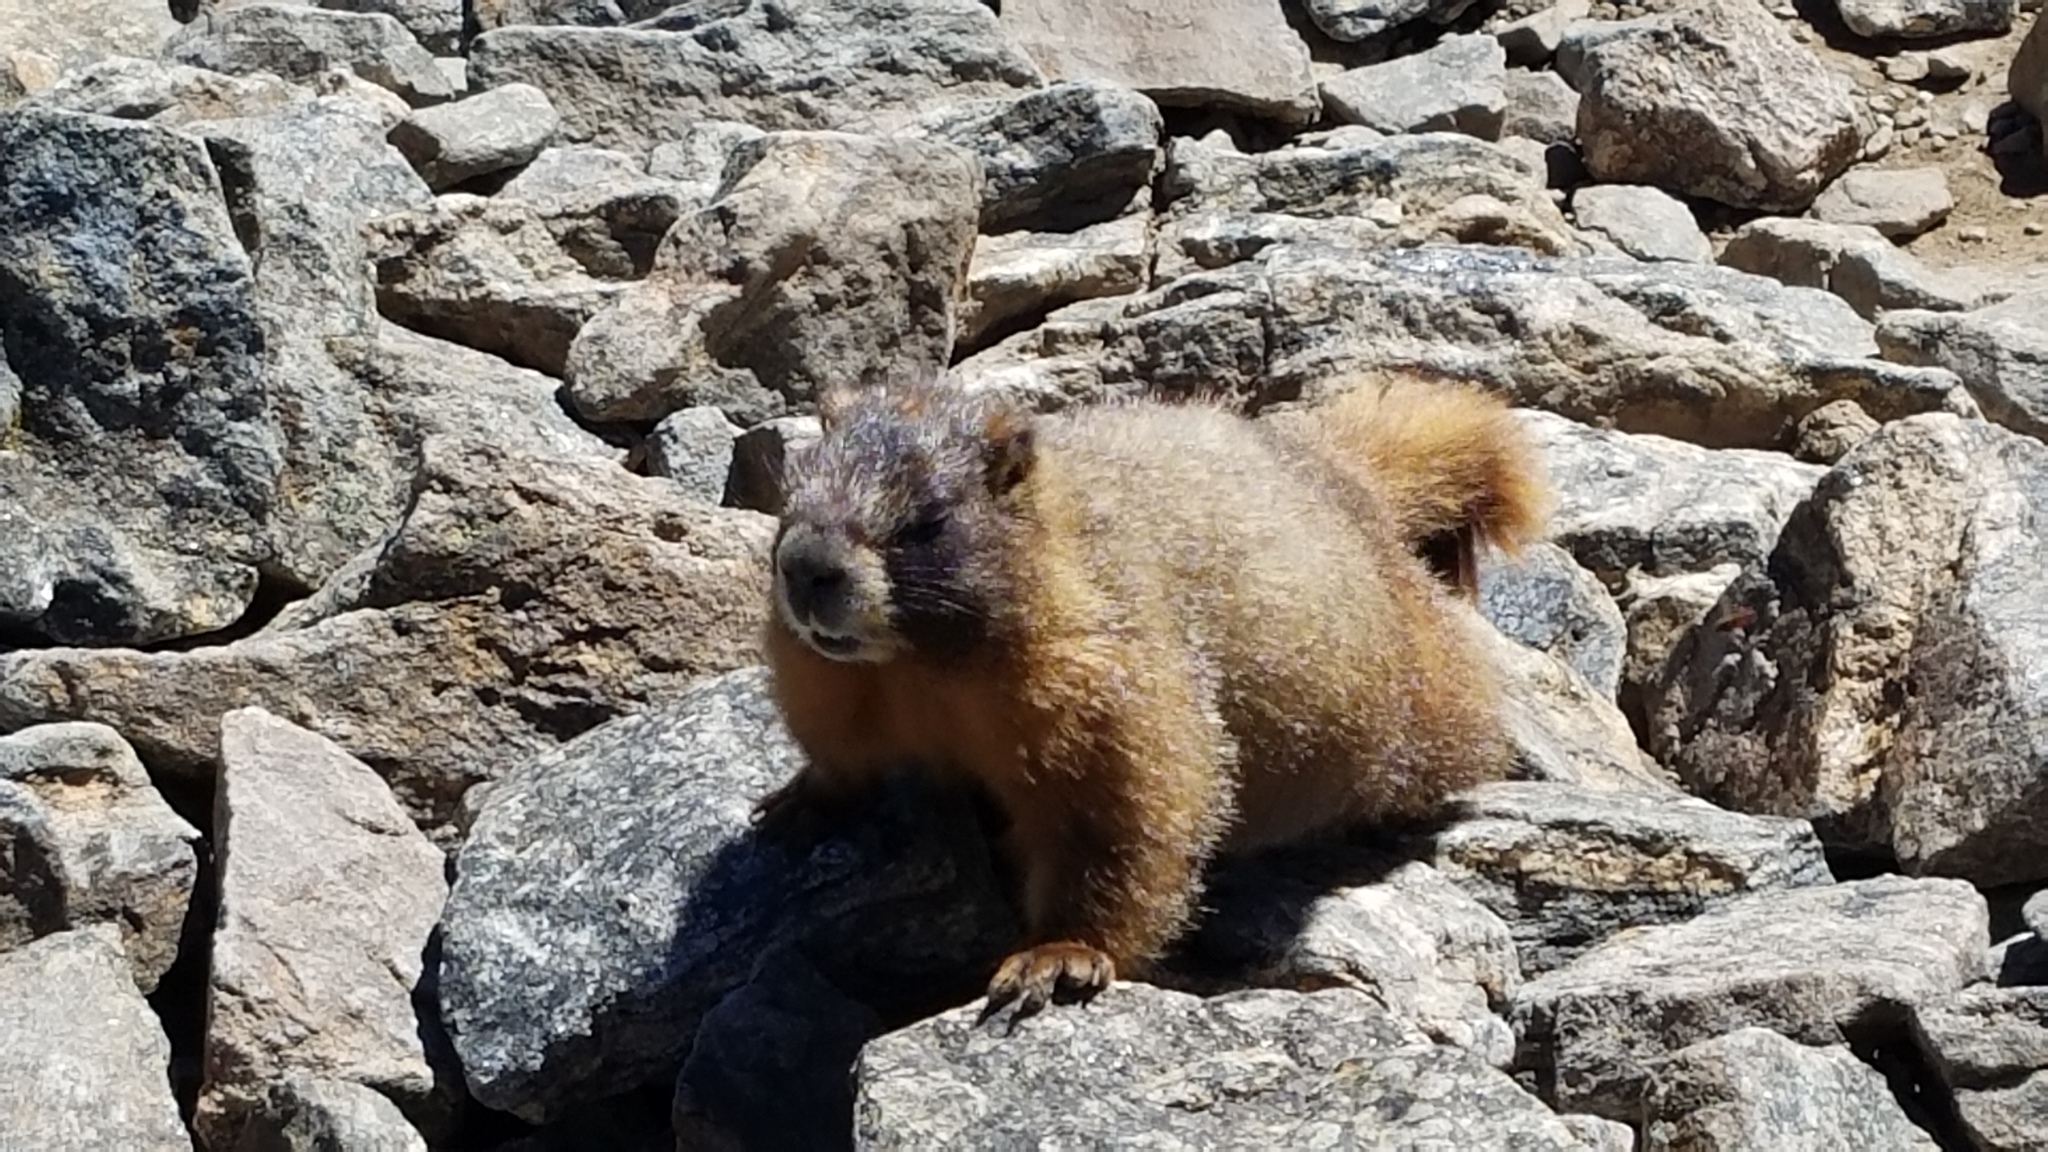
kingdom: Animalia
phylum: Chordata
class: Mammalia
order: Rodentia
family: Sciuridae
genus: Marmota
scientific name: Marmota flaviventris
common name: Yellow-bellied marmot
